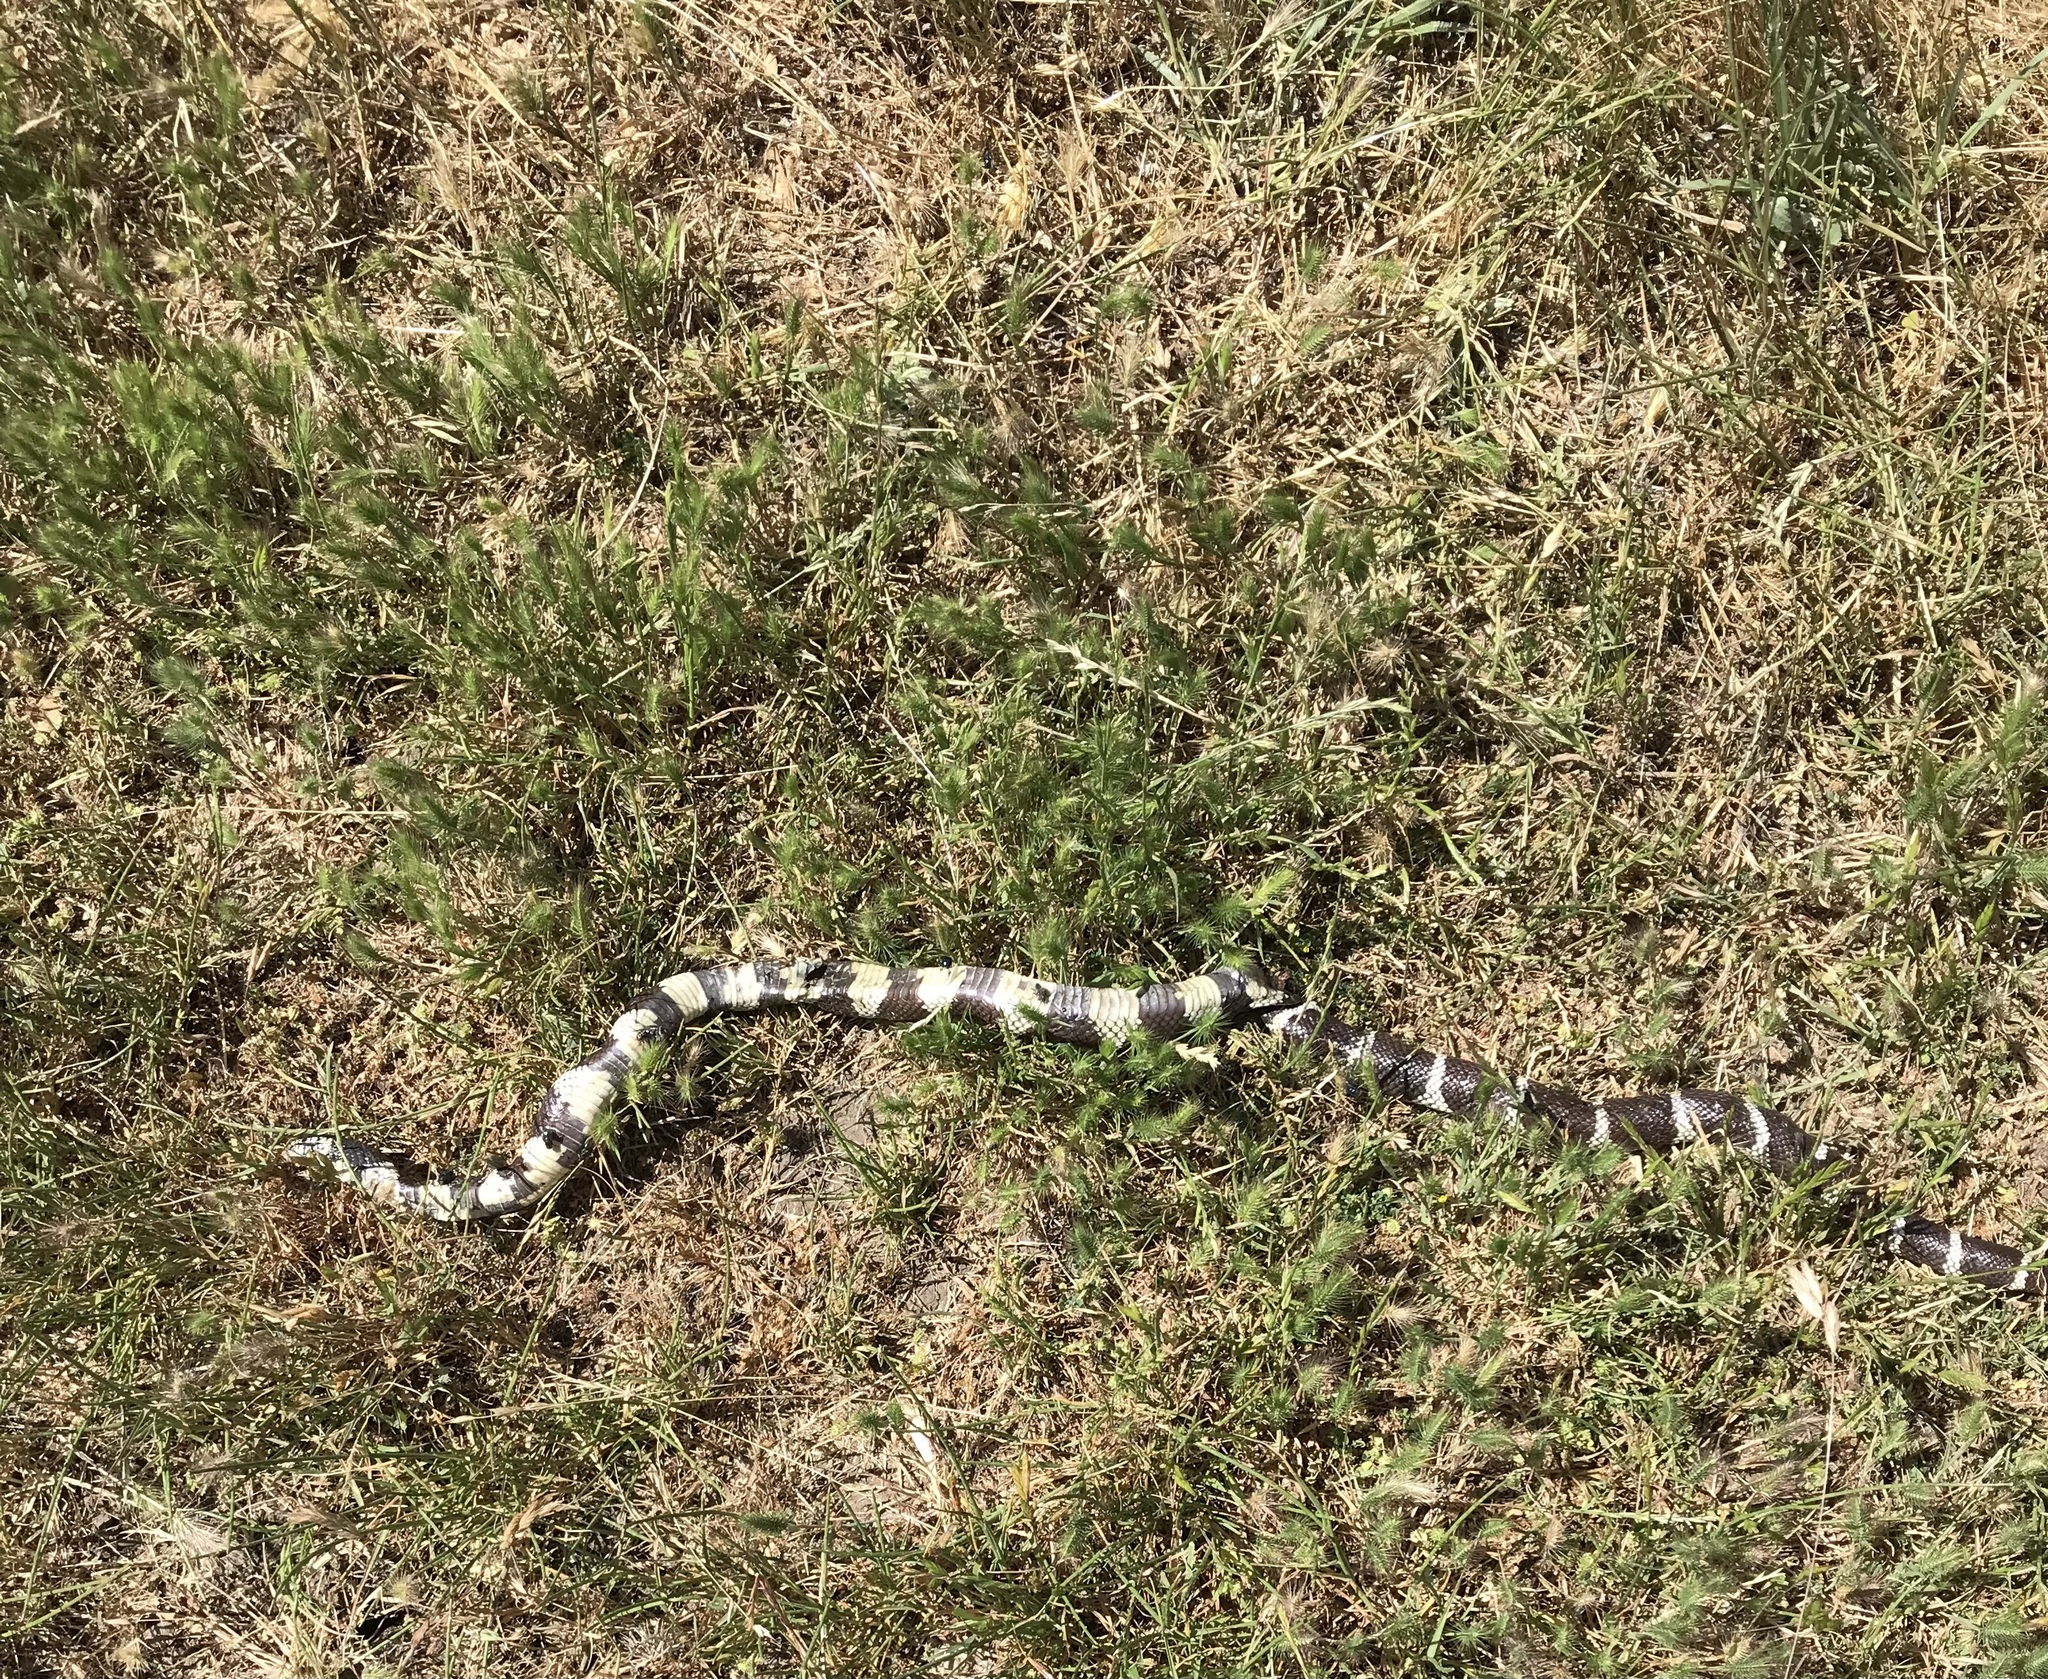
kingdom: Animalia
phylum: Chordata
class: Squamata
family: Colubridae
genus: Lampropeltis
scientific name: Lampropeltis californiae
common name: California kingsnake
